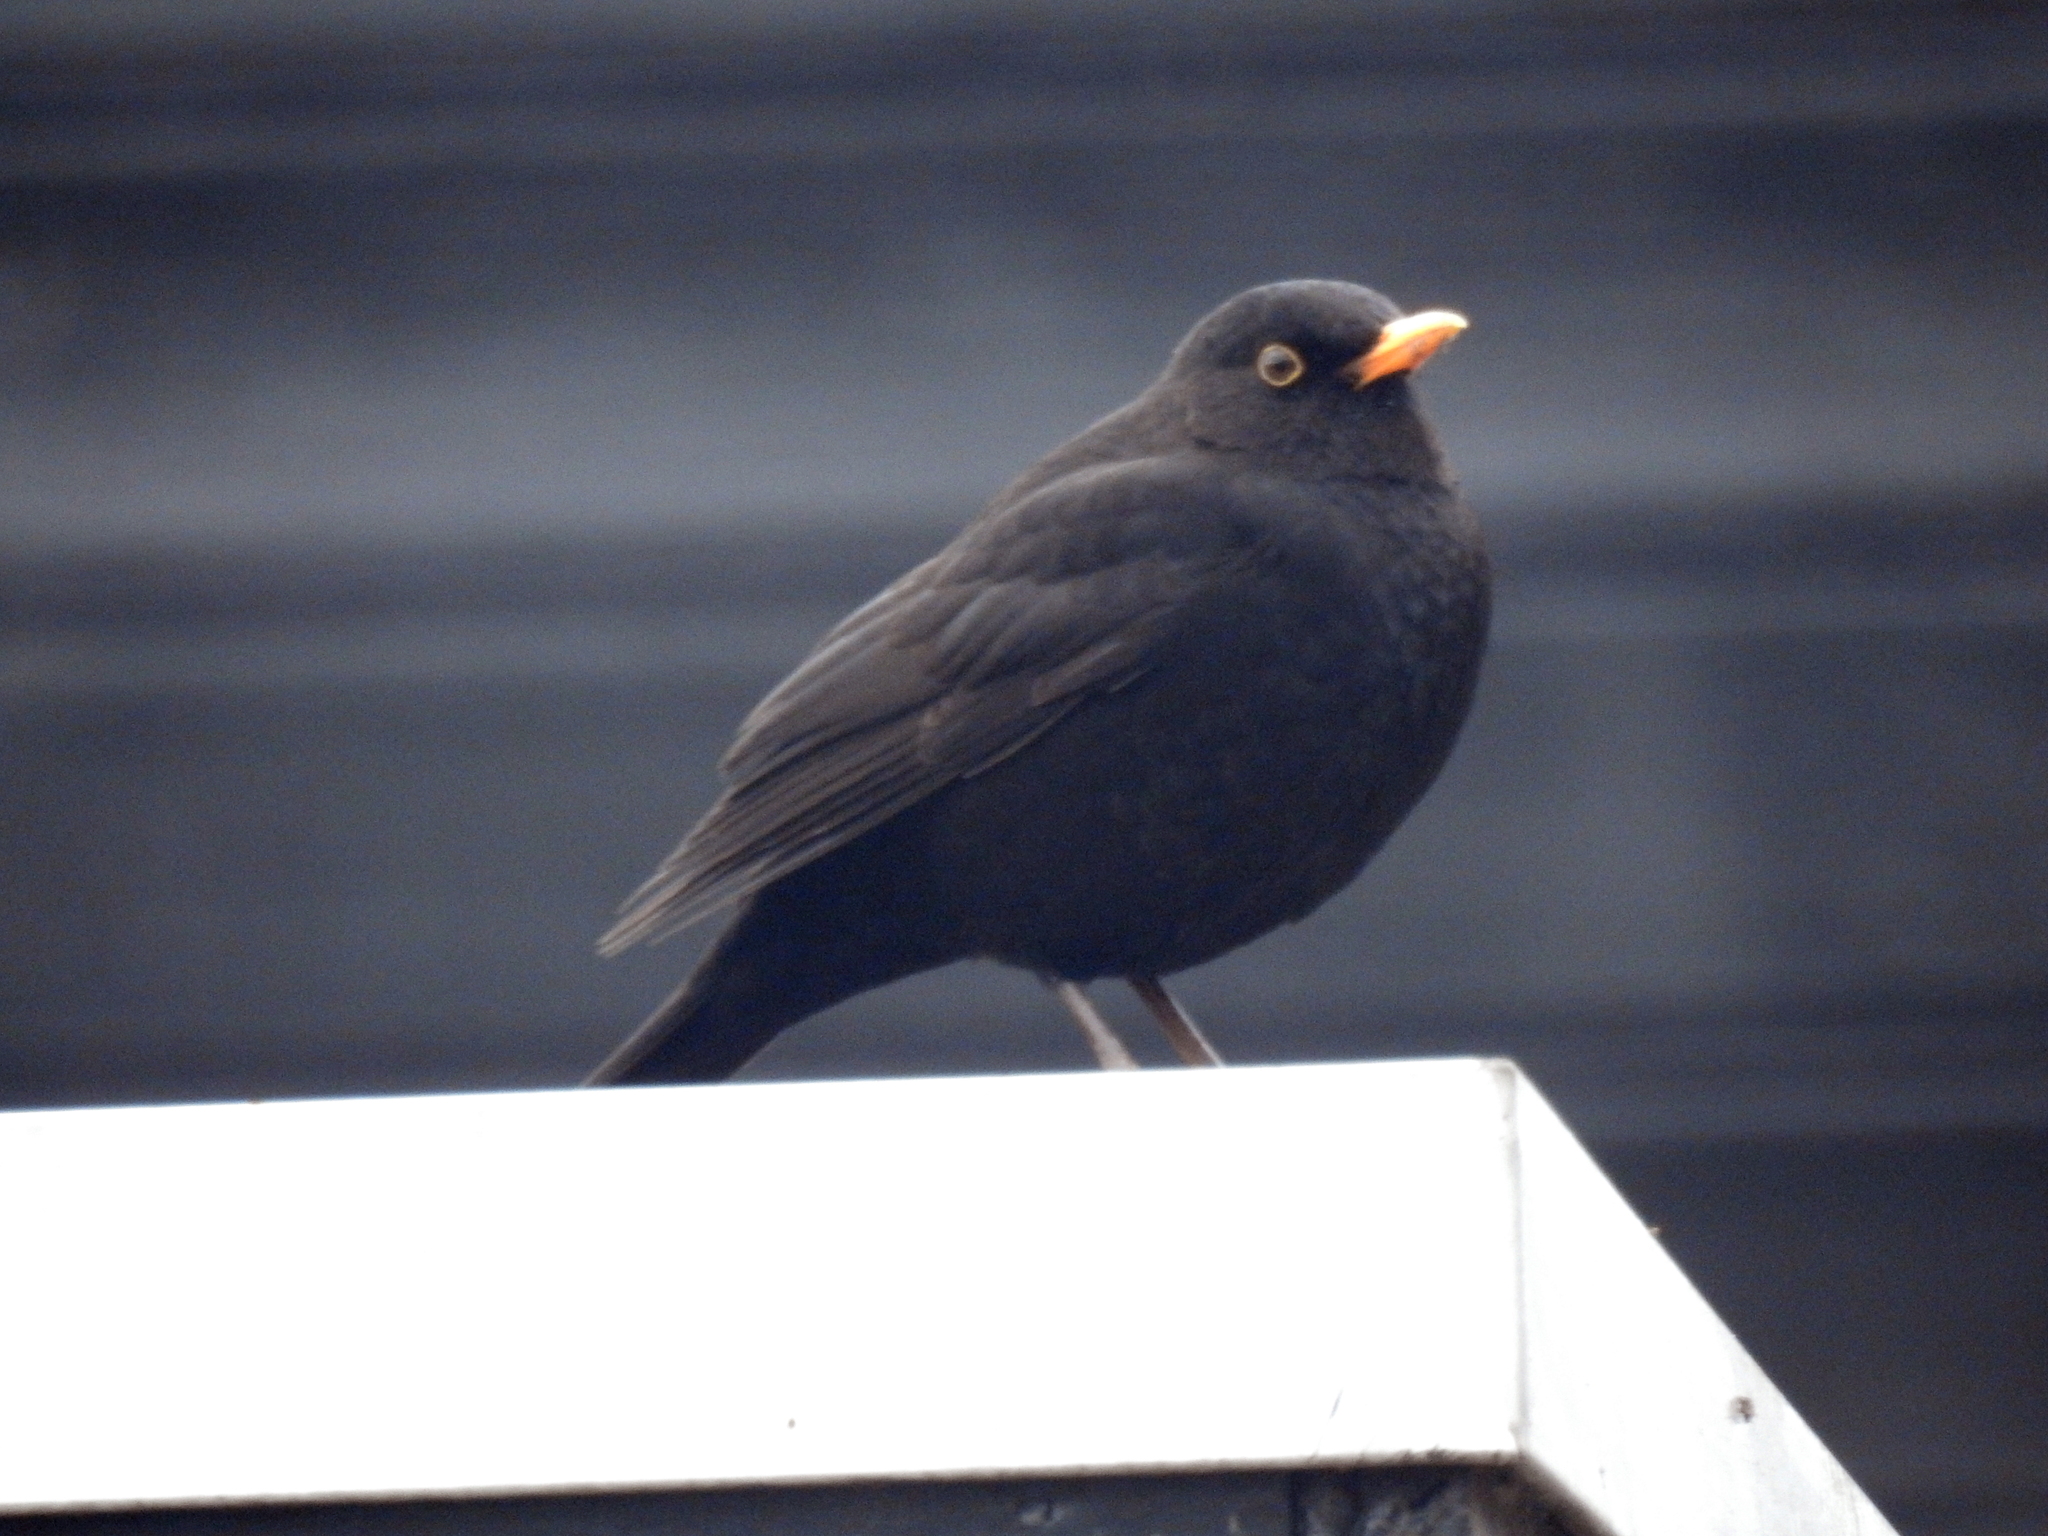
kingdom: Animalia
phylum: Chordata
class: Aves
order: Passeriformes
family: Turdidae
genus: Turdus
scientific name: Turdus merula
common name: Common blackbird
